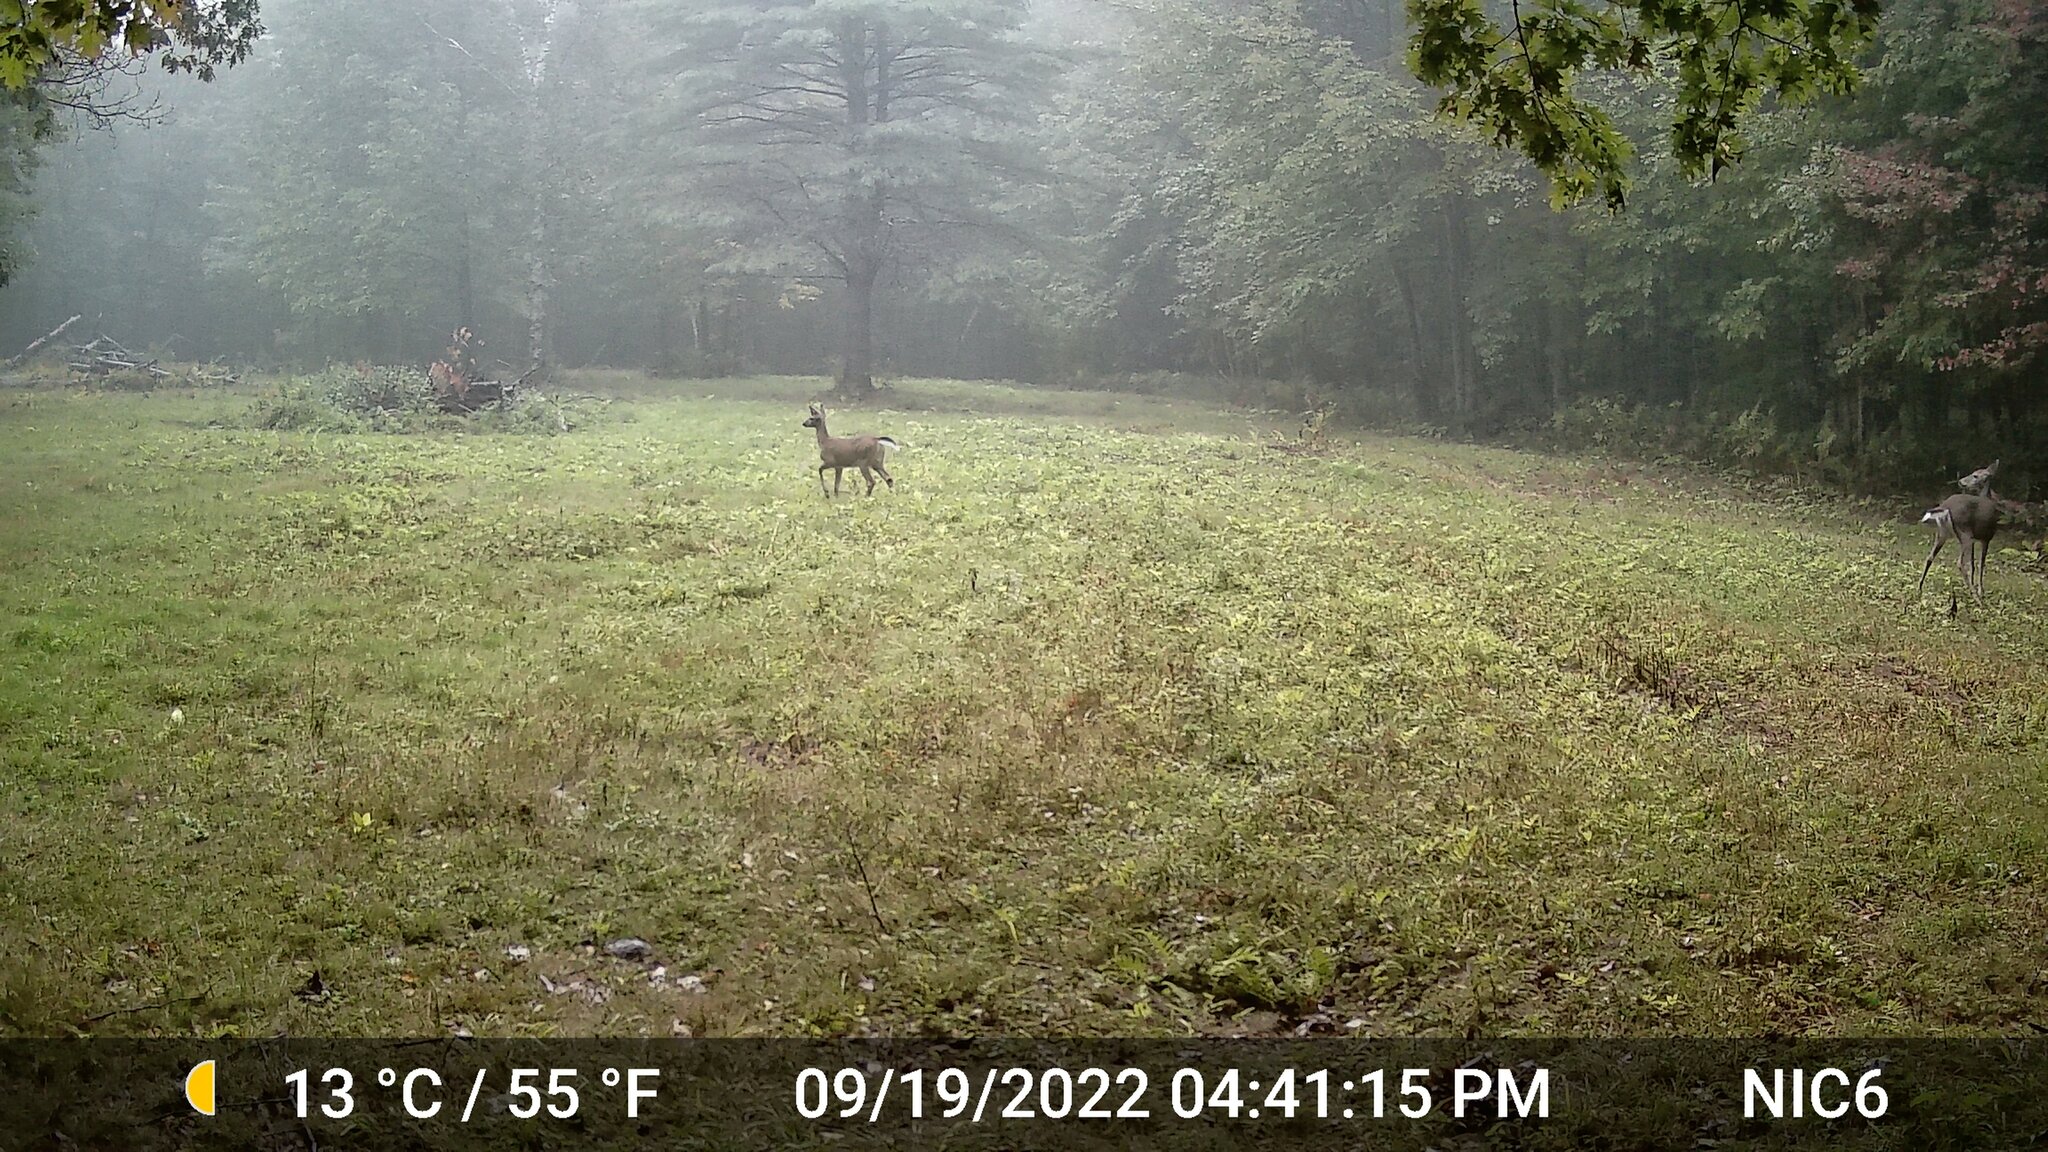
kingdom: Animalia
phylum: Chordata
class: Mammalia
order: Artiodactyla
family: Cervidae
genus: Odocoileus
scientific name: Odocoileus virginianus
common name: White-tailed deer
